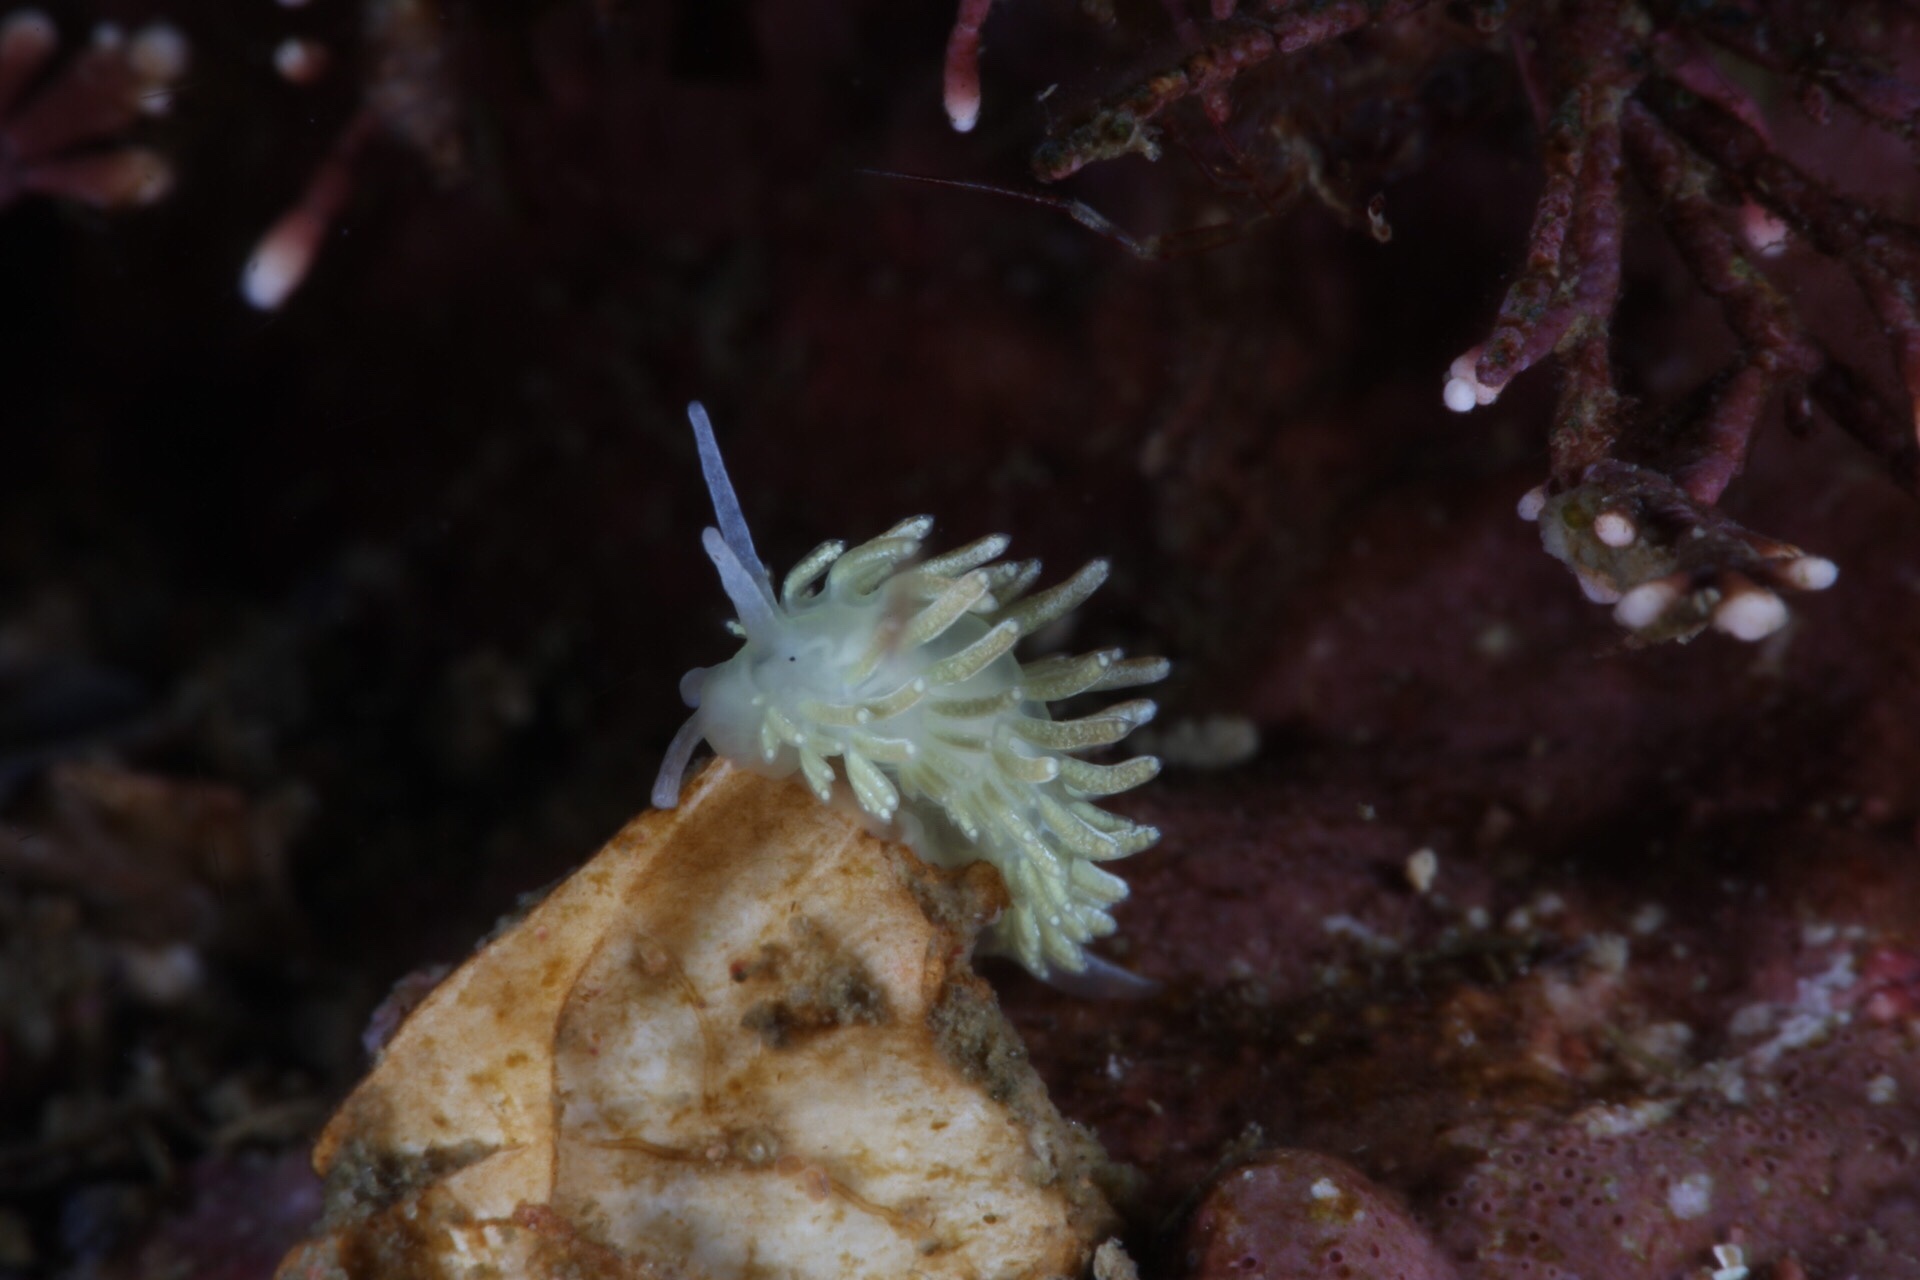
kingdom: Animalia
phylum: Mollusca
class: Gastropoda
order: Nudibranchia
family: Trinchesiidae
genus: Diaphoreolis
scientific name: Diaphoreolis viridis
